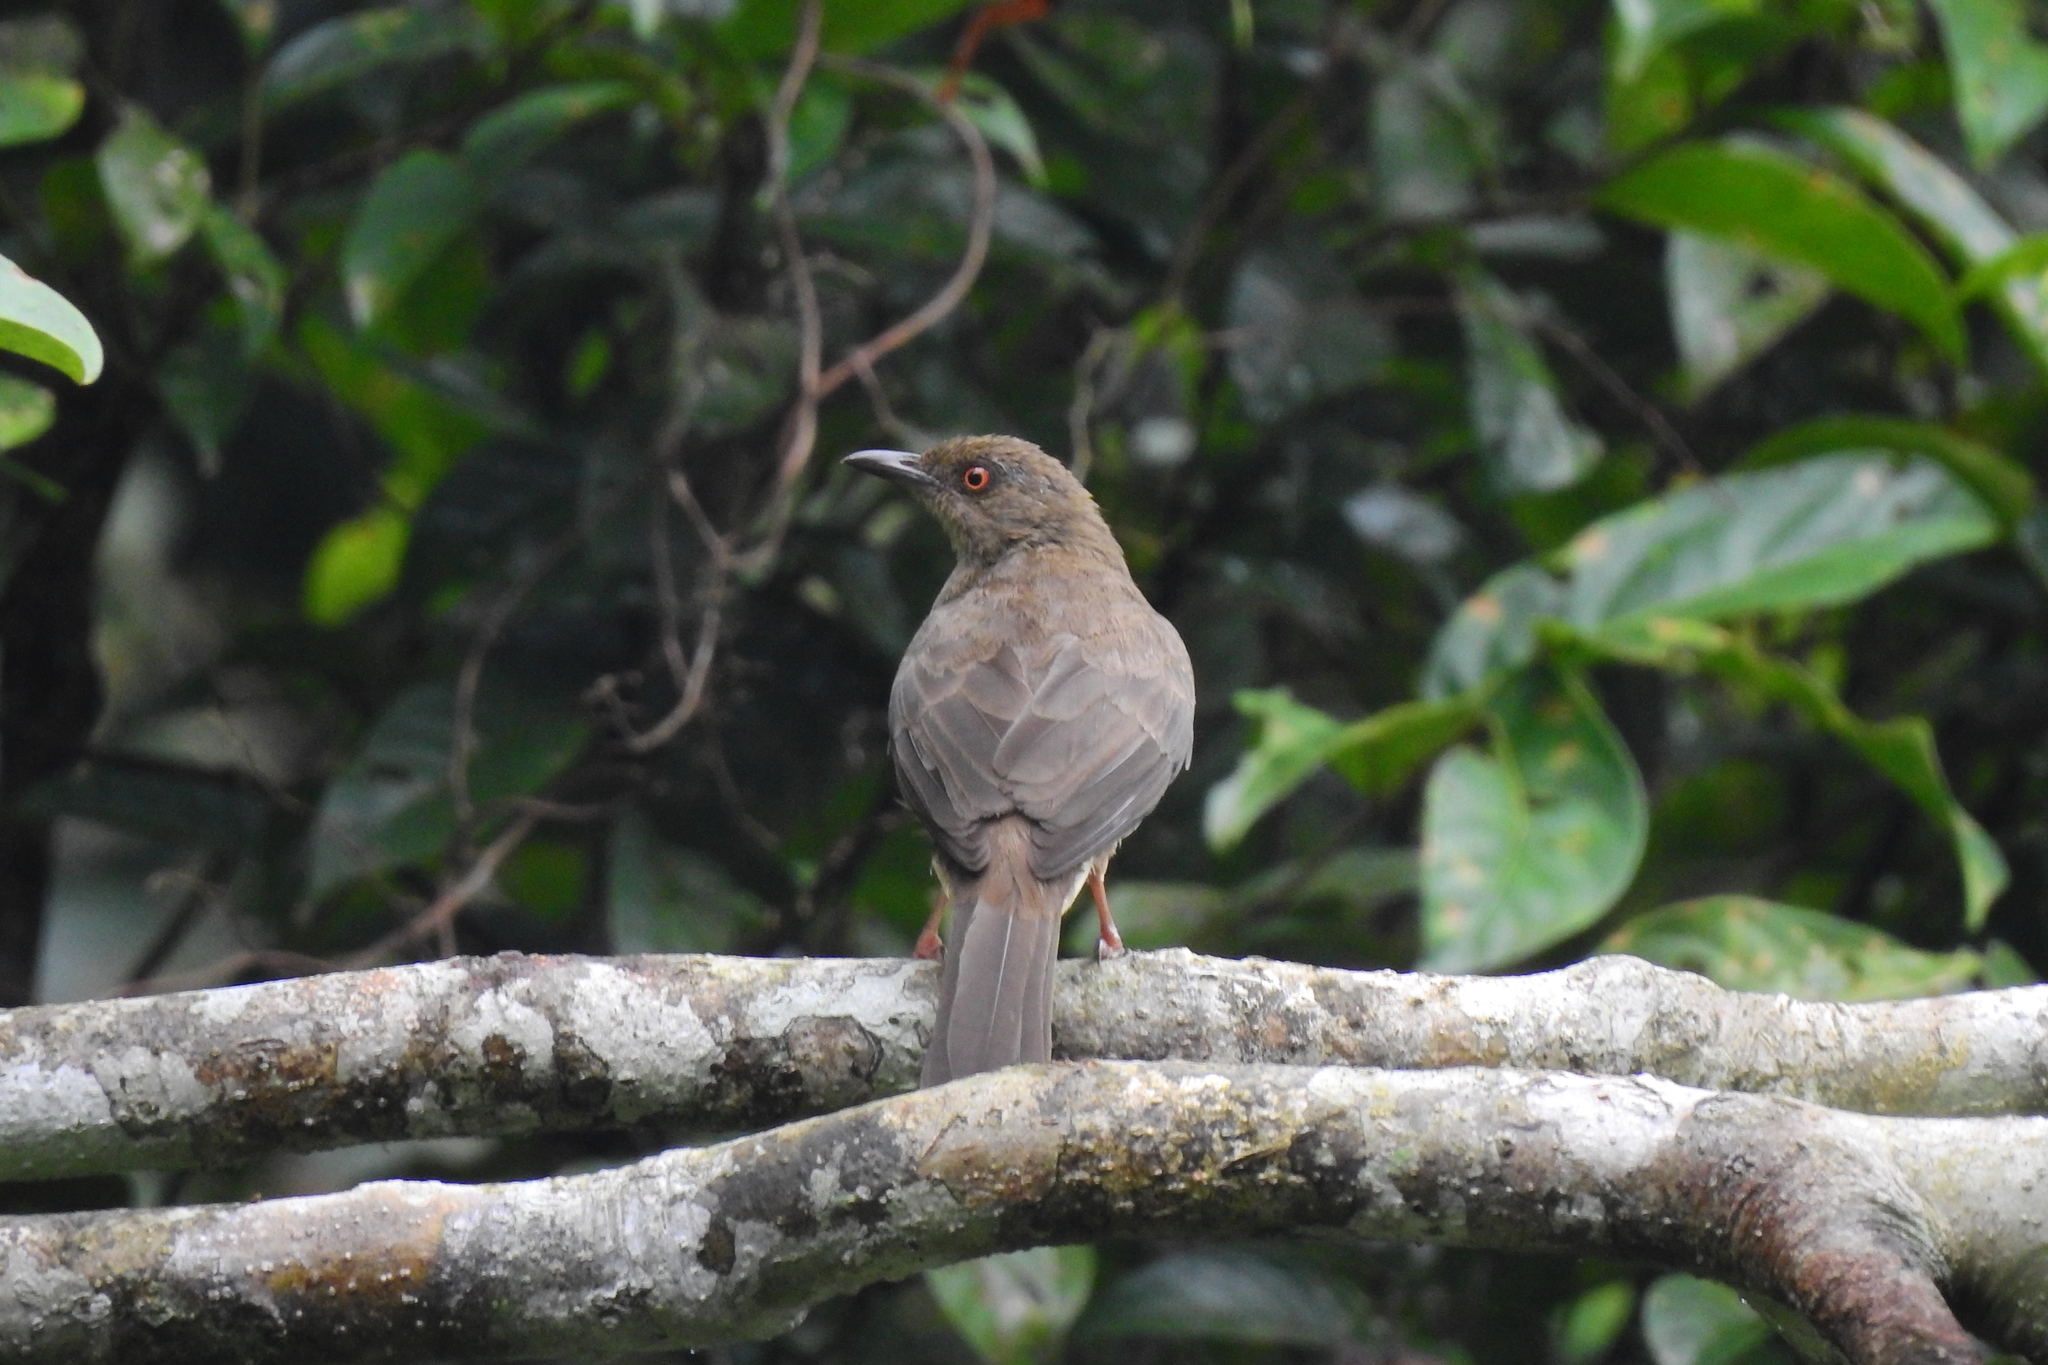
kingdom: Animalia
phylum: Chordata
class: Aves
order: Passeriformes
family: Pycnonotidae
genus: Pycnonotus
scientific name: Pycnonotus brunneus
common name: Asian red-eyed bulbul
